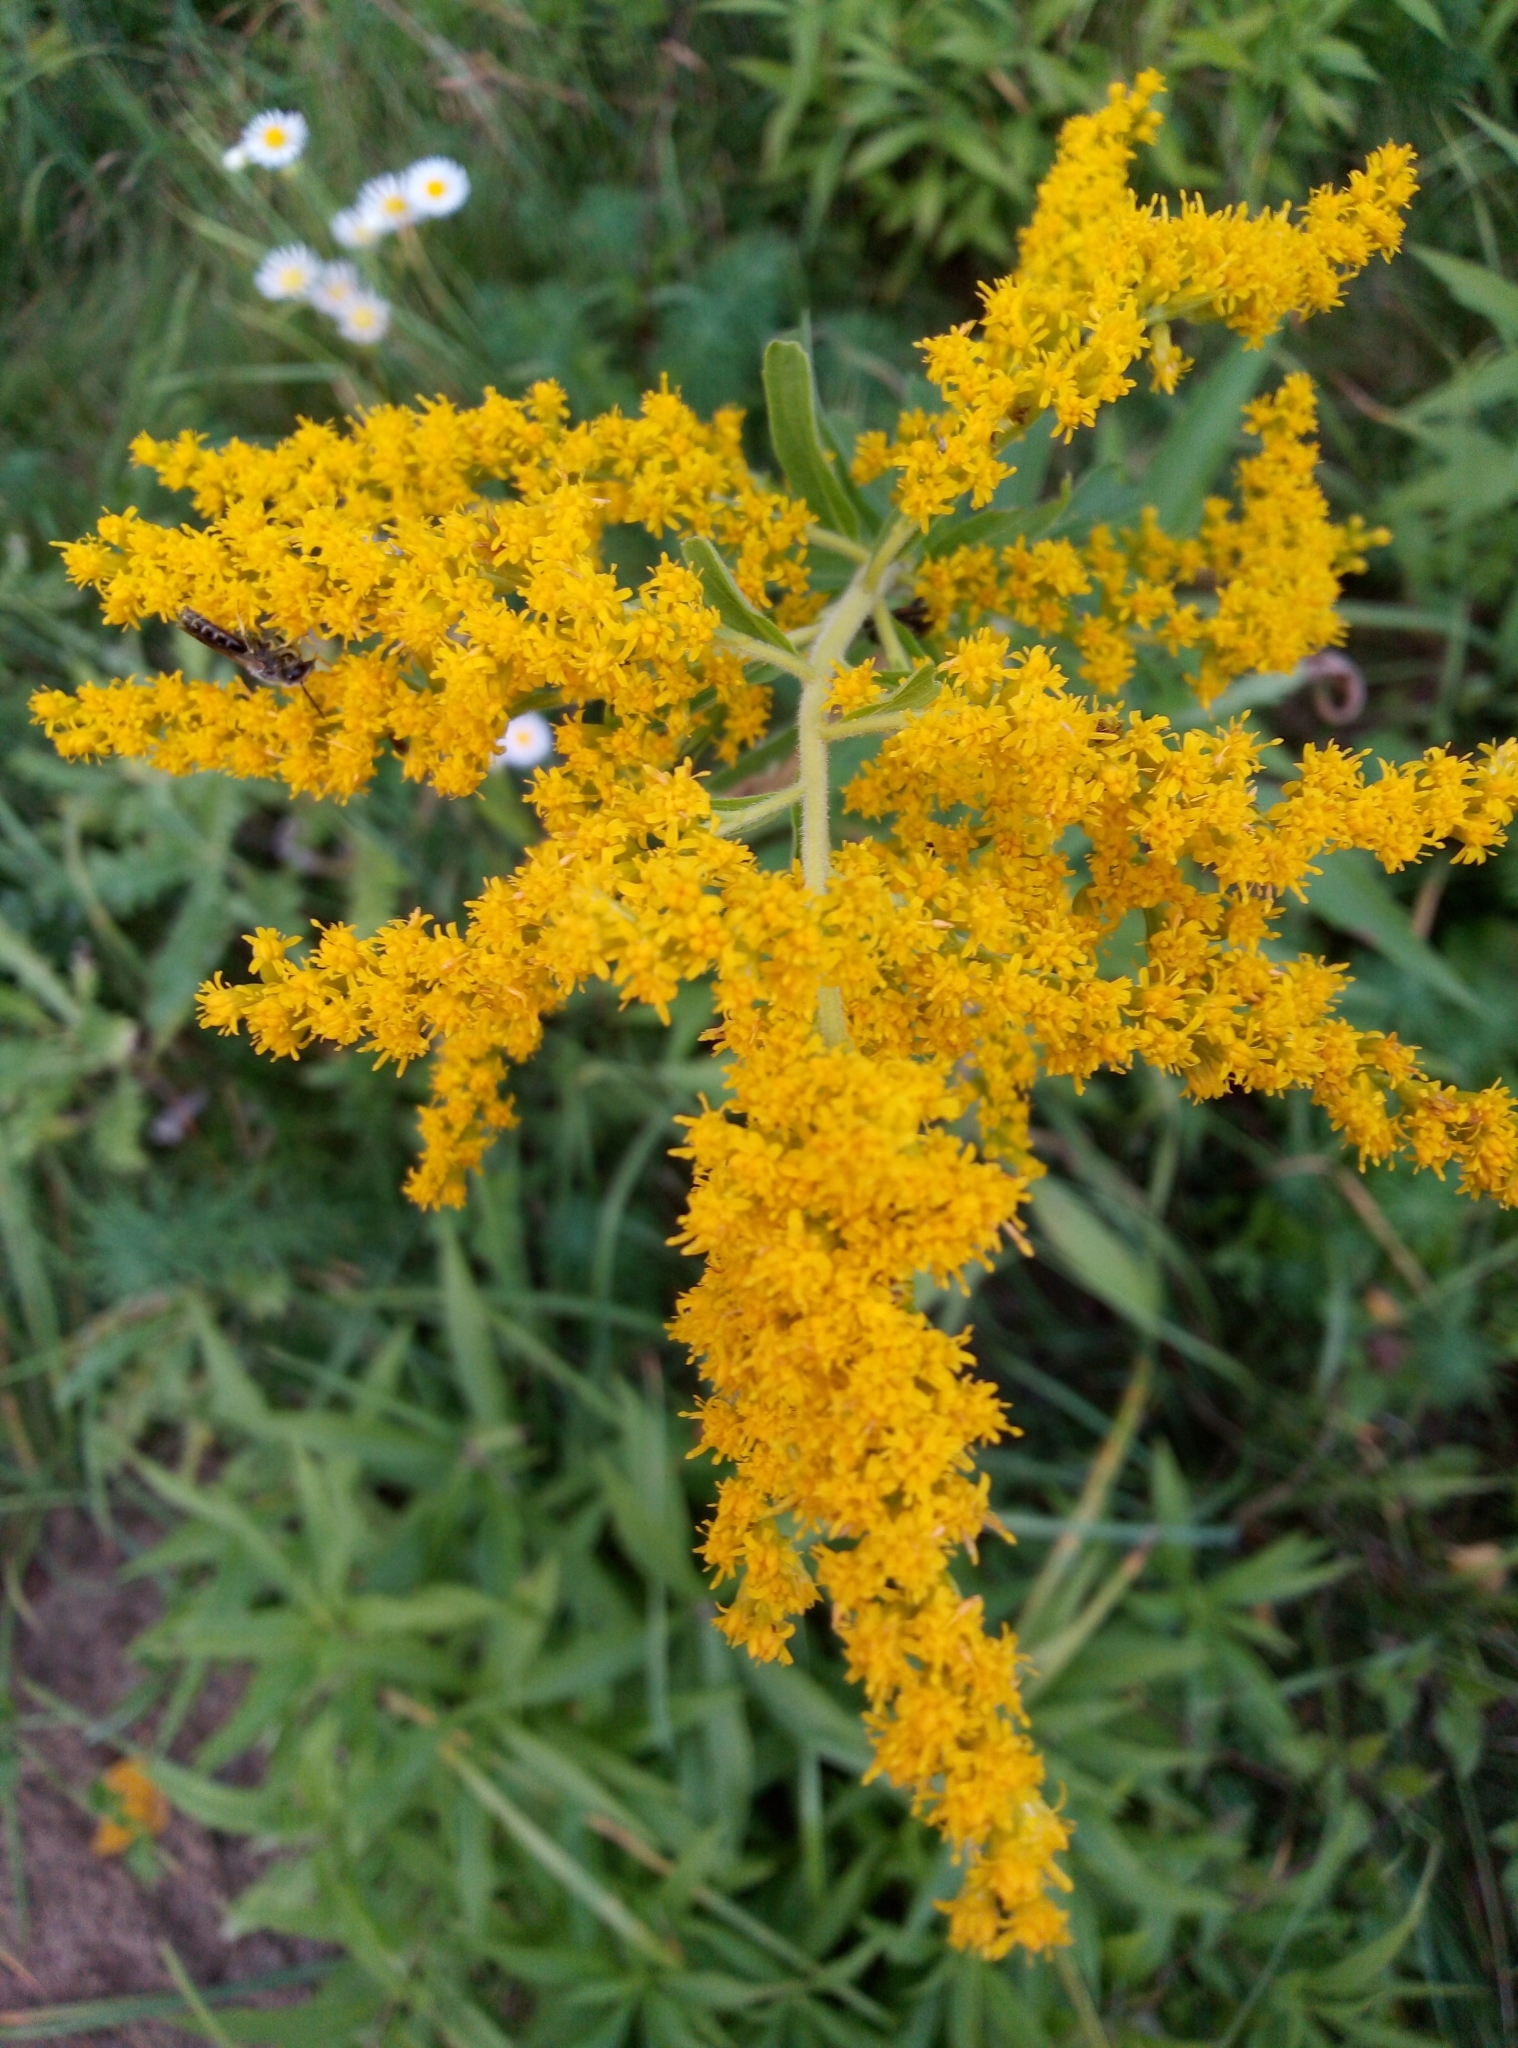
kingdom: Plantae
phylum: Tracheophyta
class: Magnoliopsida
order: Asterales
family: Asteraceae
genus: Solidago
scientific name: Solidago canadensis
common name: Canada goldenrod
